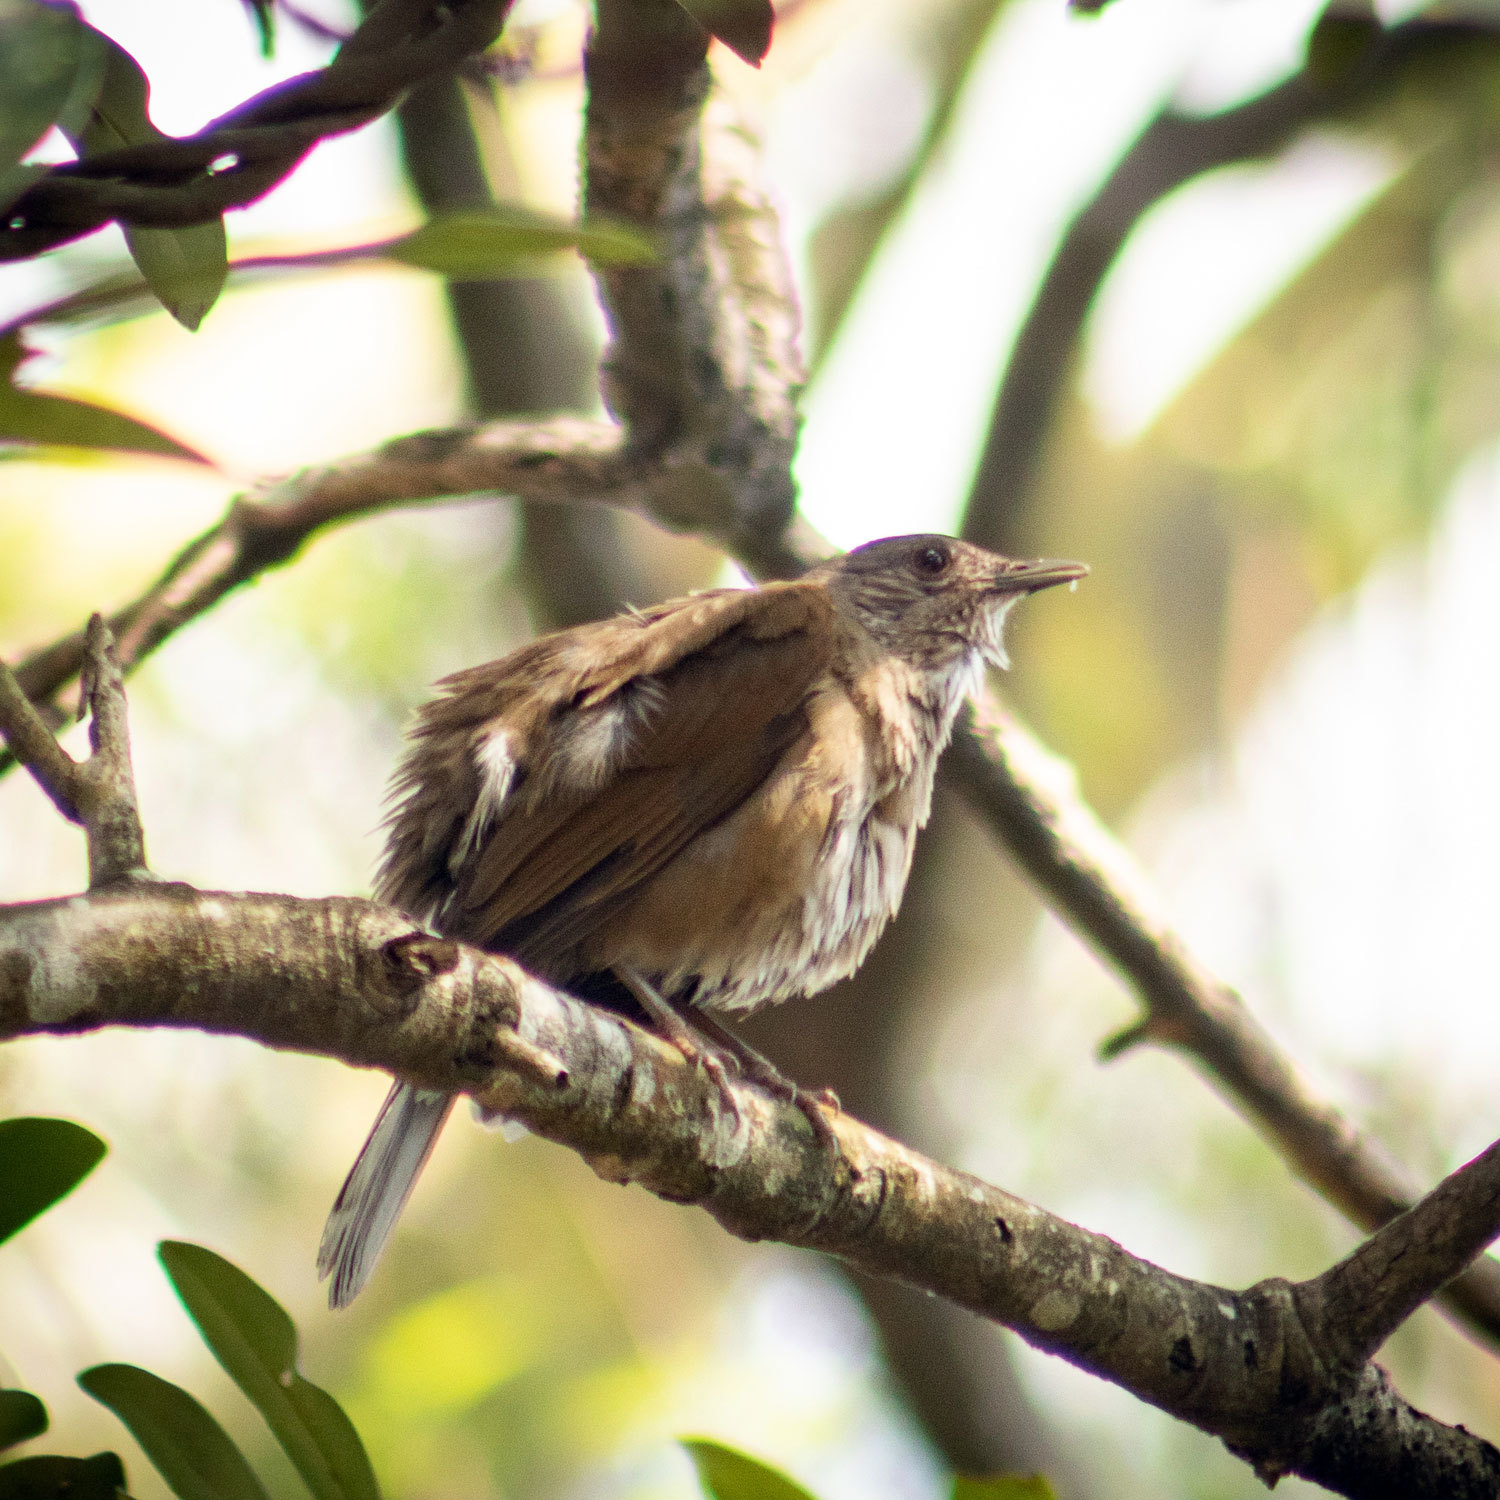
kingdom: Animalia
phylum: Chordata
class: Aves
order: Passeriformes
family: Turdidae
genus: Turdus
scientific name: Turdus leucomelas
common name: Pale-breasted thrush
